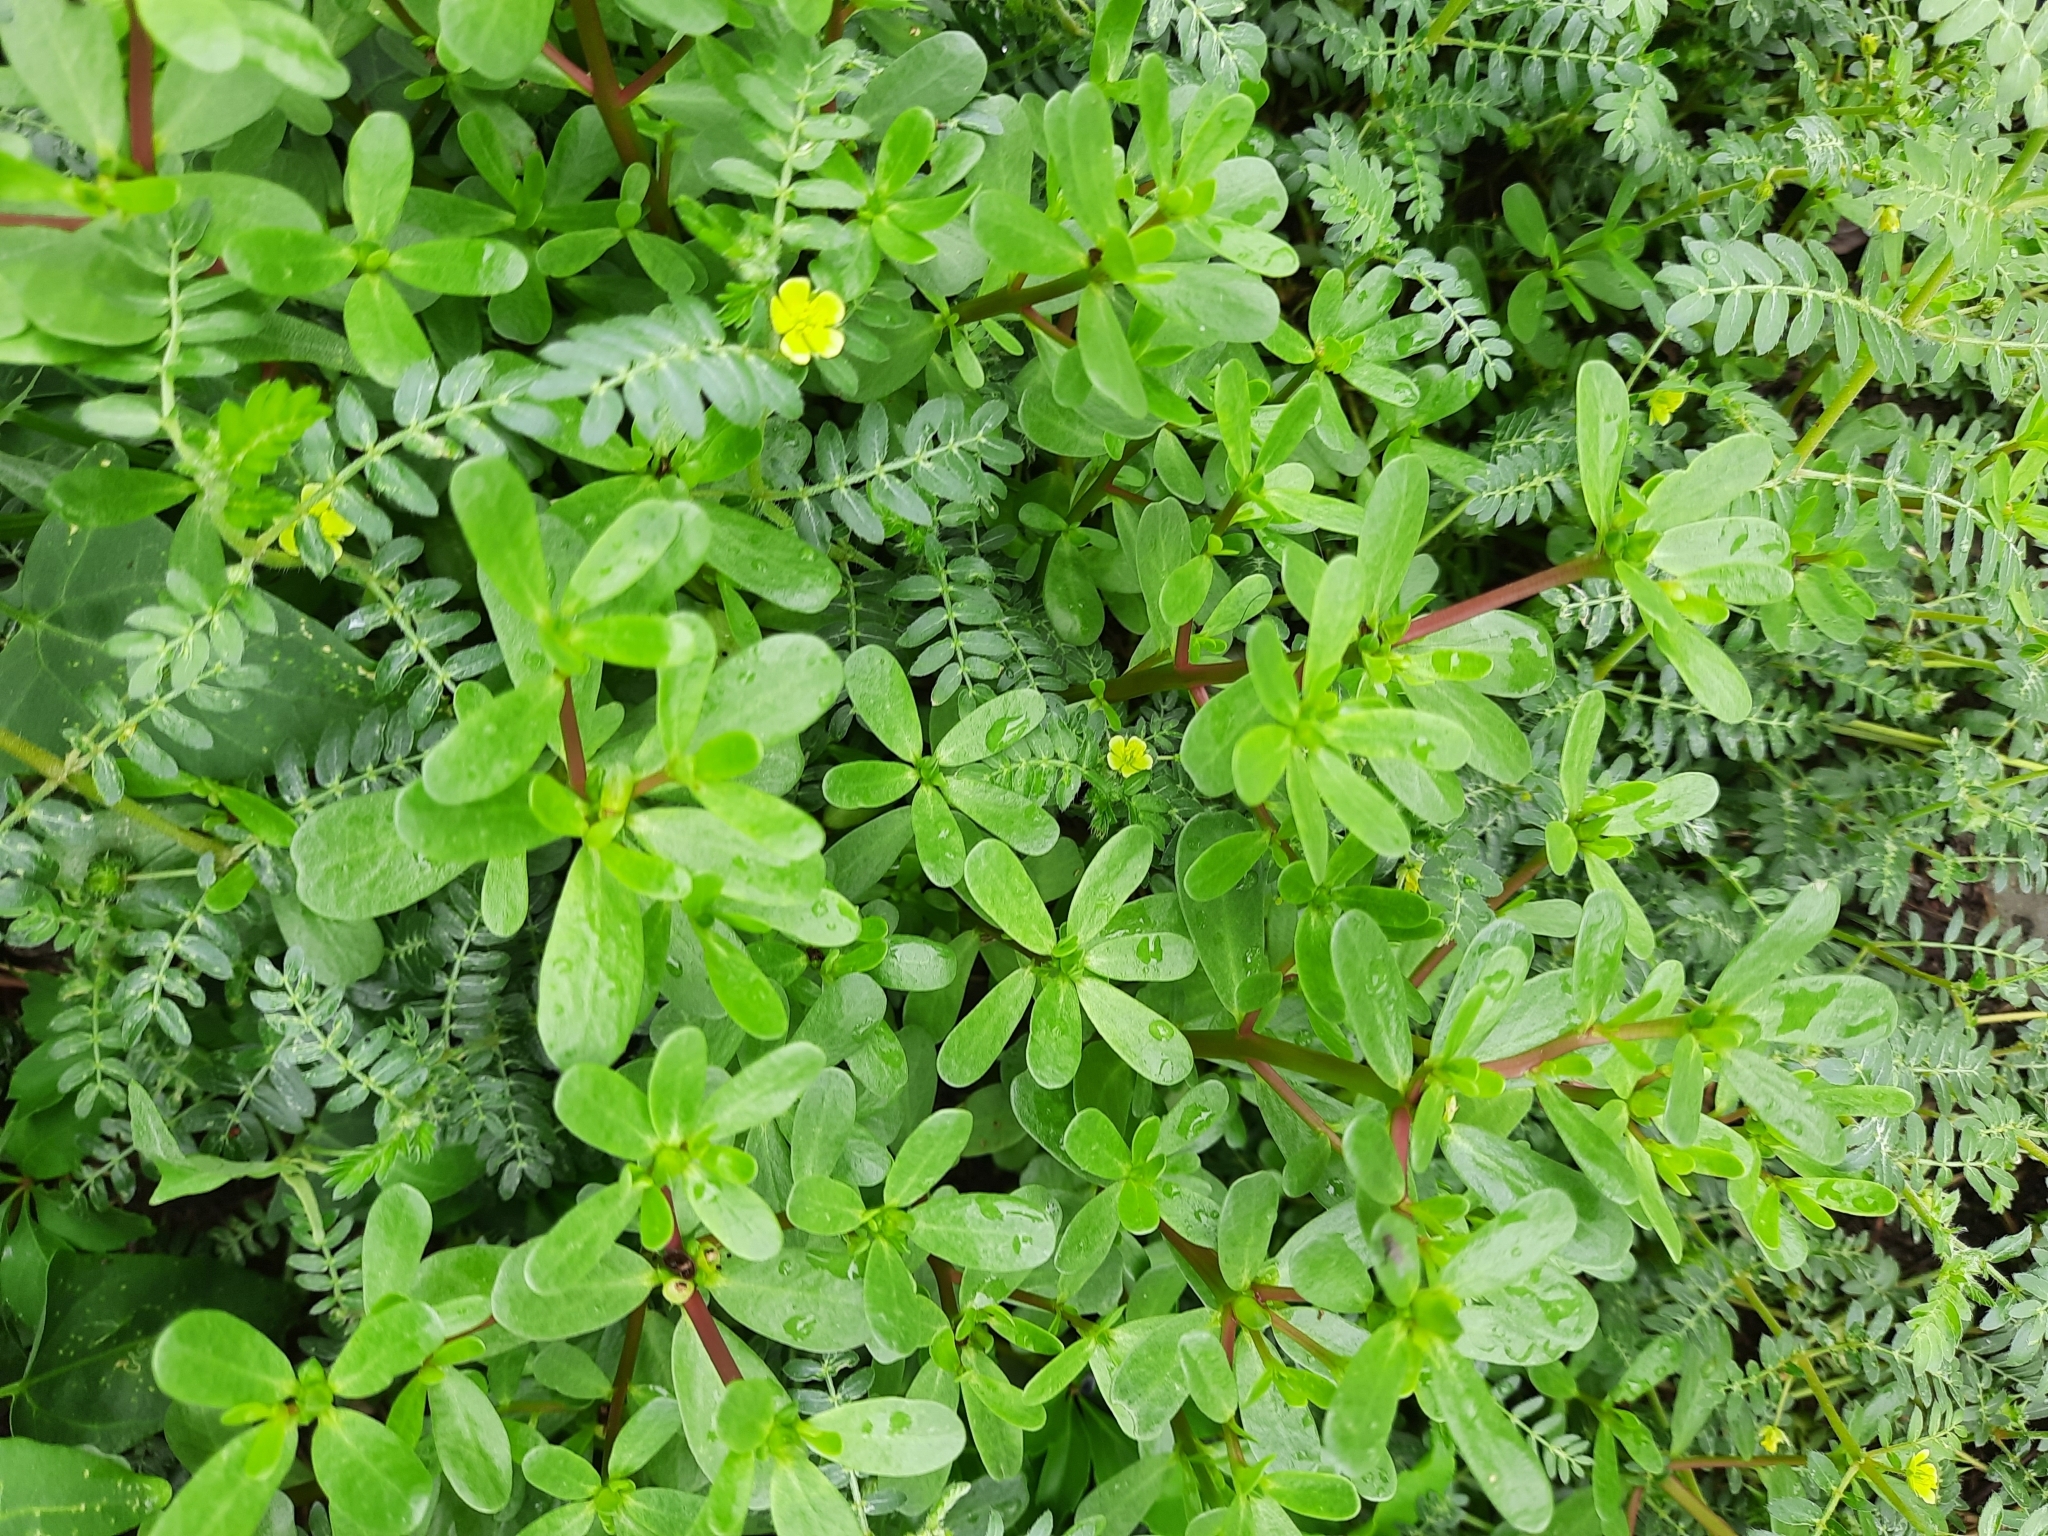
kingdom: Plantae
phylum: Tracheophyta
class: Magnoliopsida
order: Caryophyllales
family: Portulacaceae
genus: Portulaca
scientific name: Portulaca oleracea
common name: Common purslane
